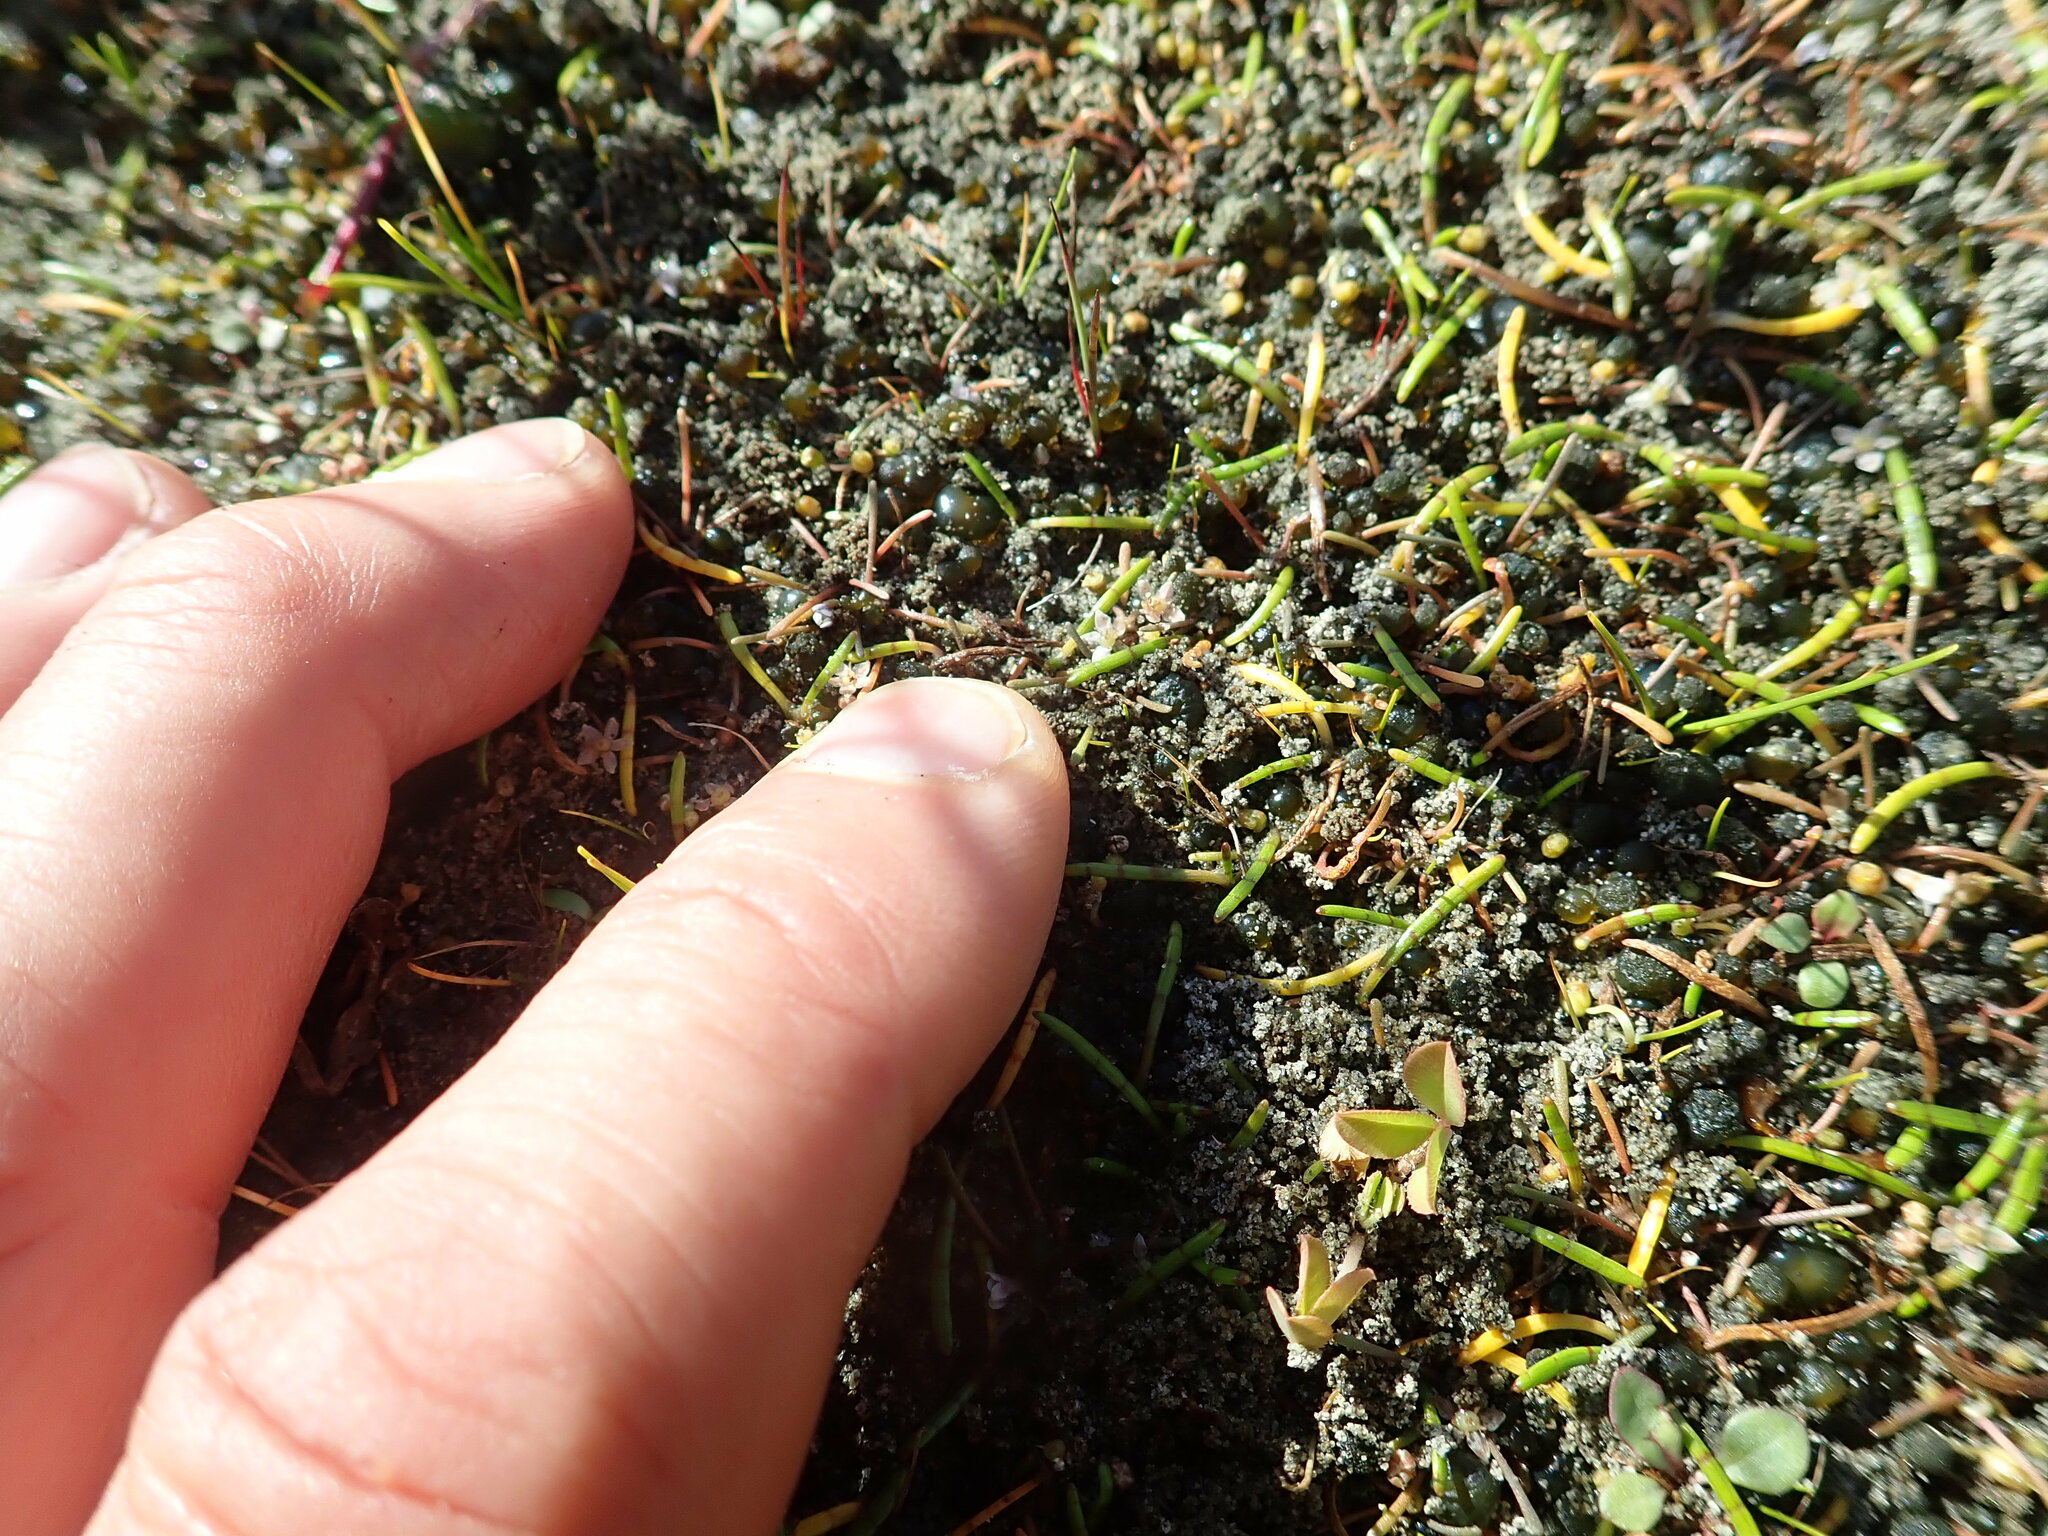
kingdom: Plantae
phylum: Tracheophyta
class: Magnoliopsida
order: Apiales
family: Apiaceae
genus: Lilaeopsis
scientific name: Lilaeopsis novae-zelandiae
